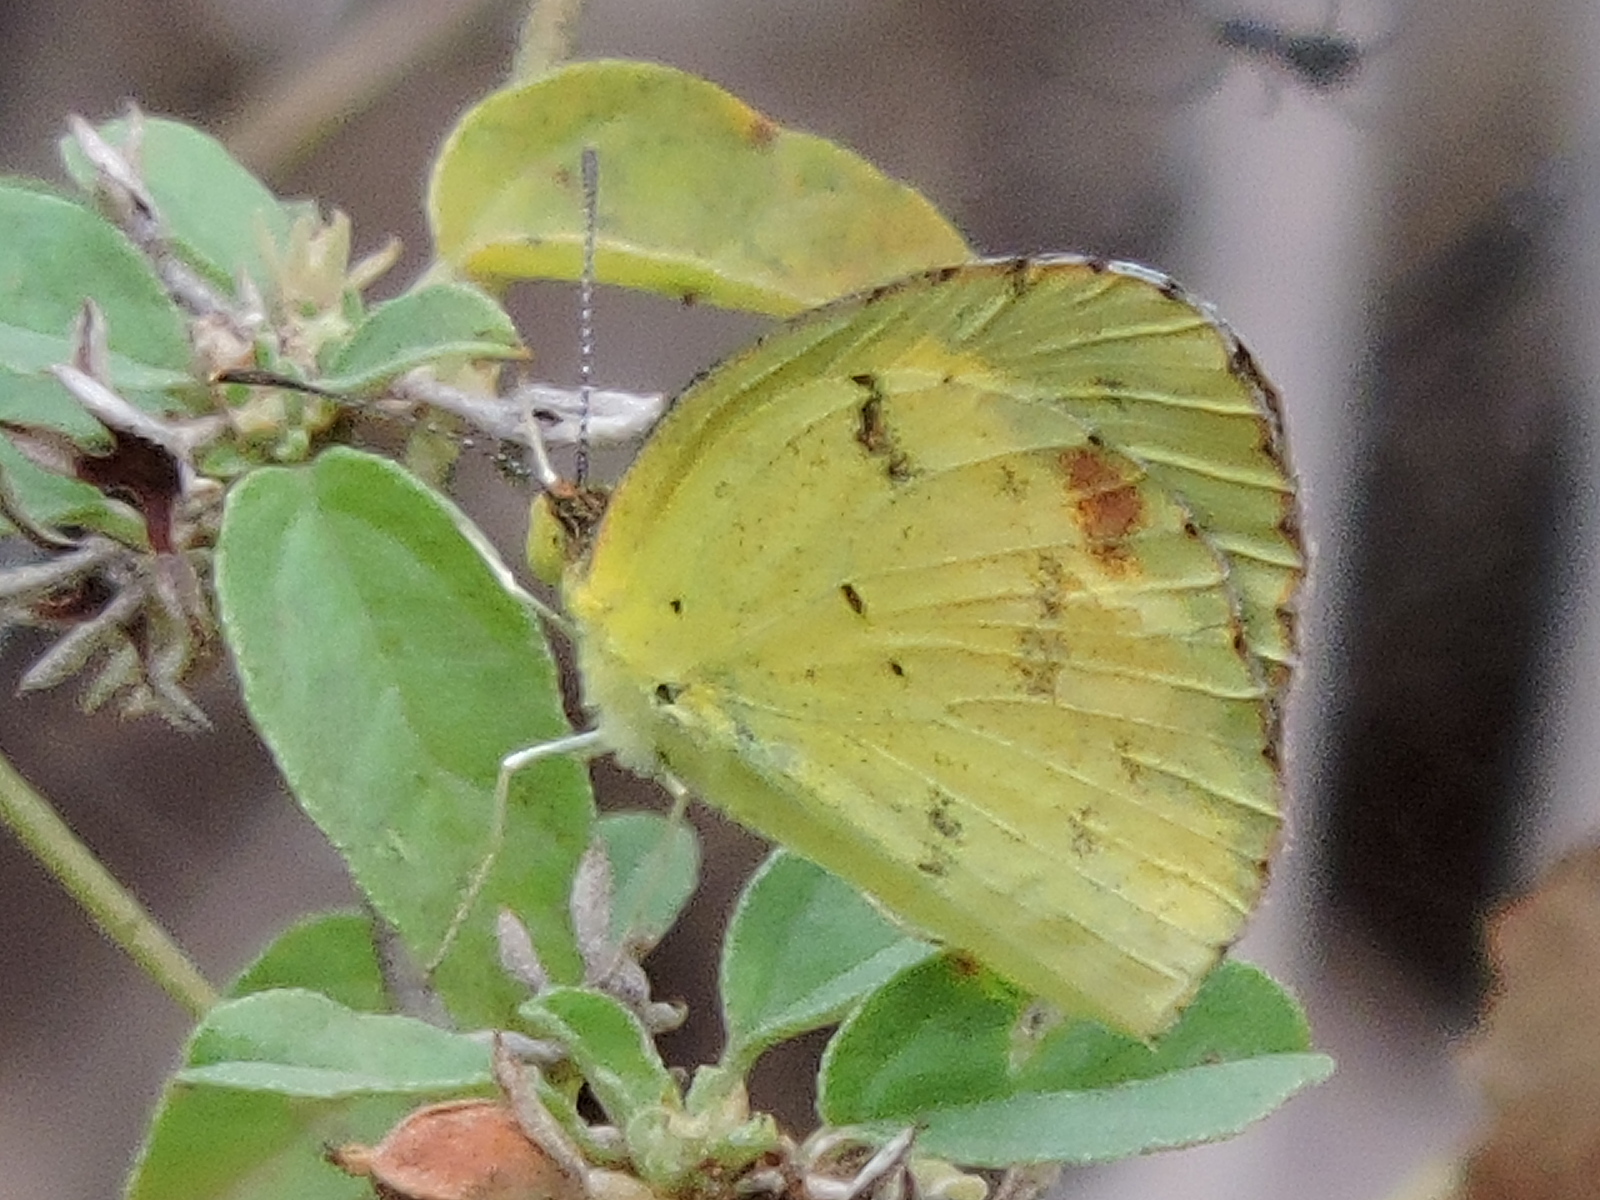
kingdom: Animalia
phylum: Arthropoda
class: Insecta
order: Lepidoptera
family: Pieridae
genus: Pyrisitia
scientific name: Pyrisitia lisa
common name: Little yellow
